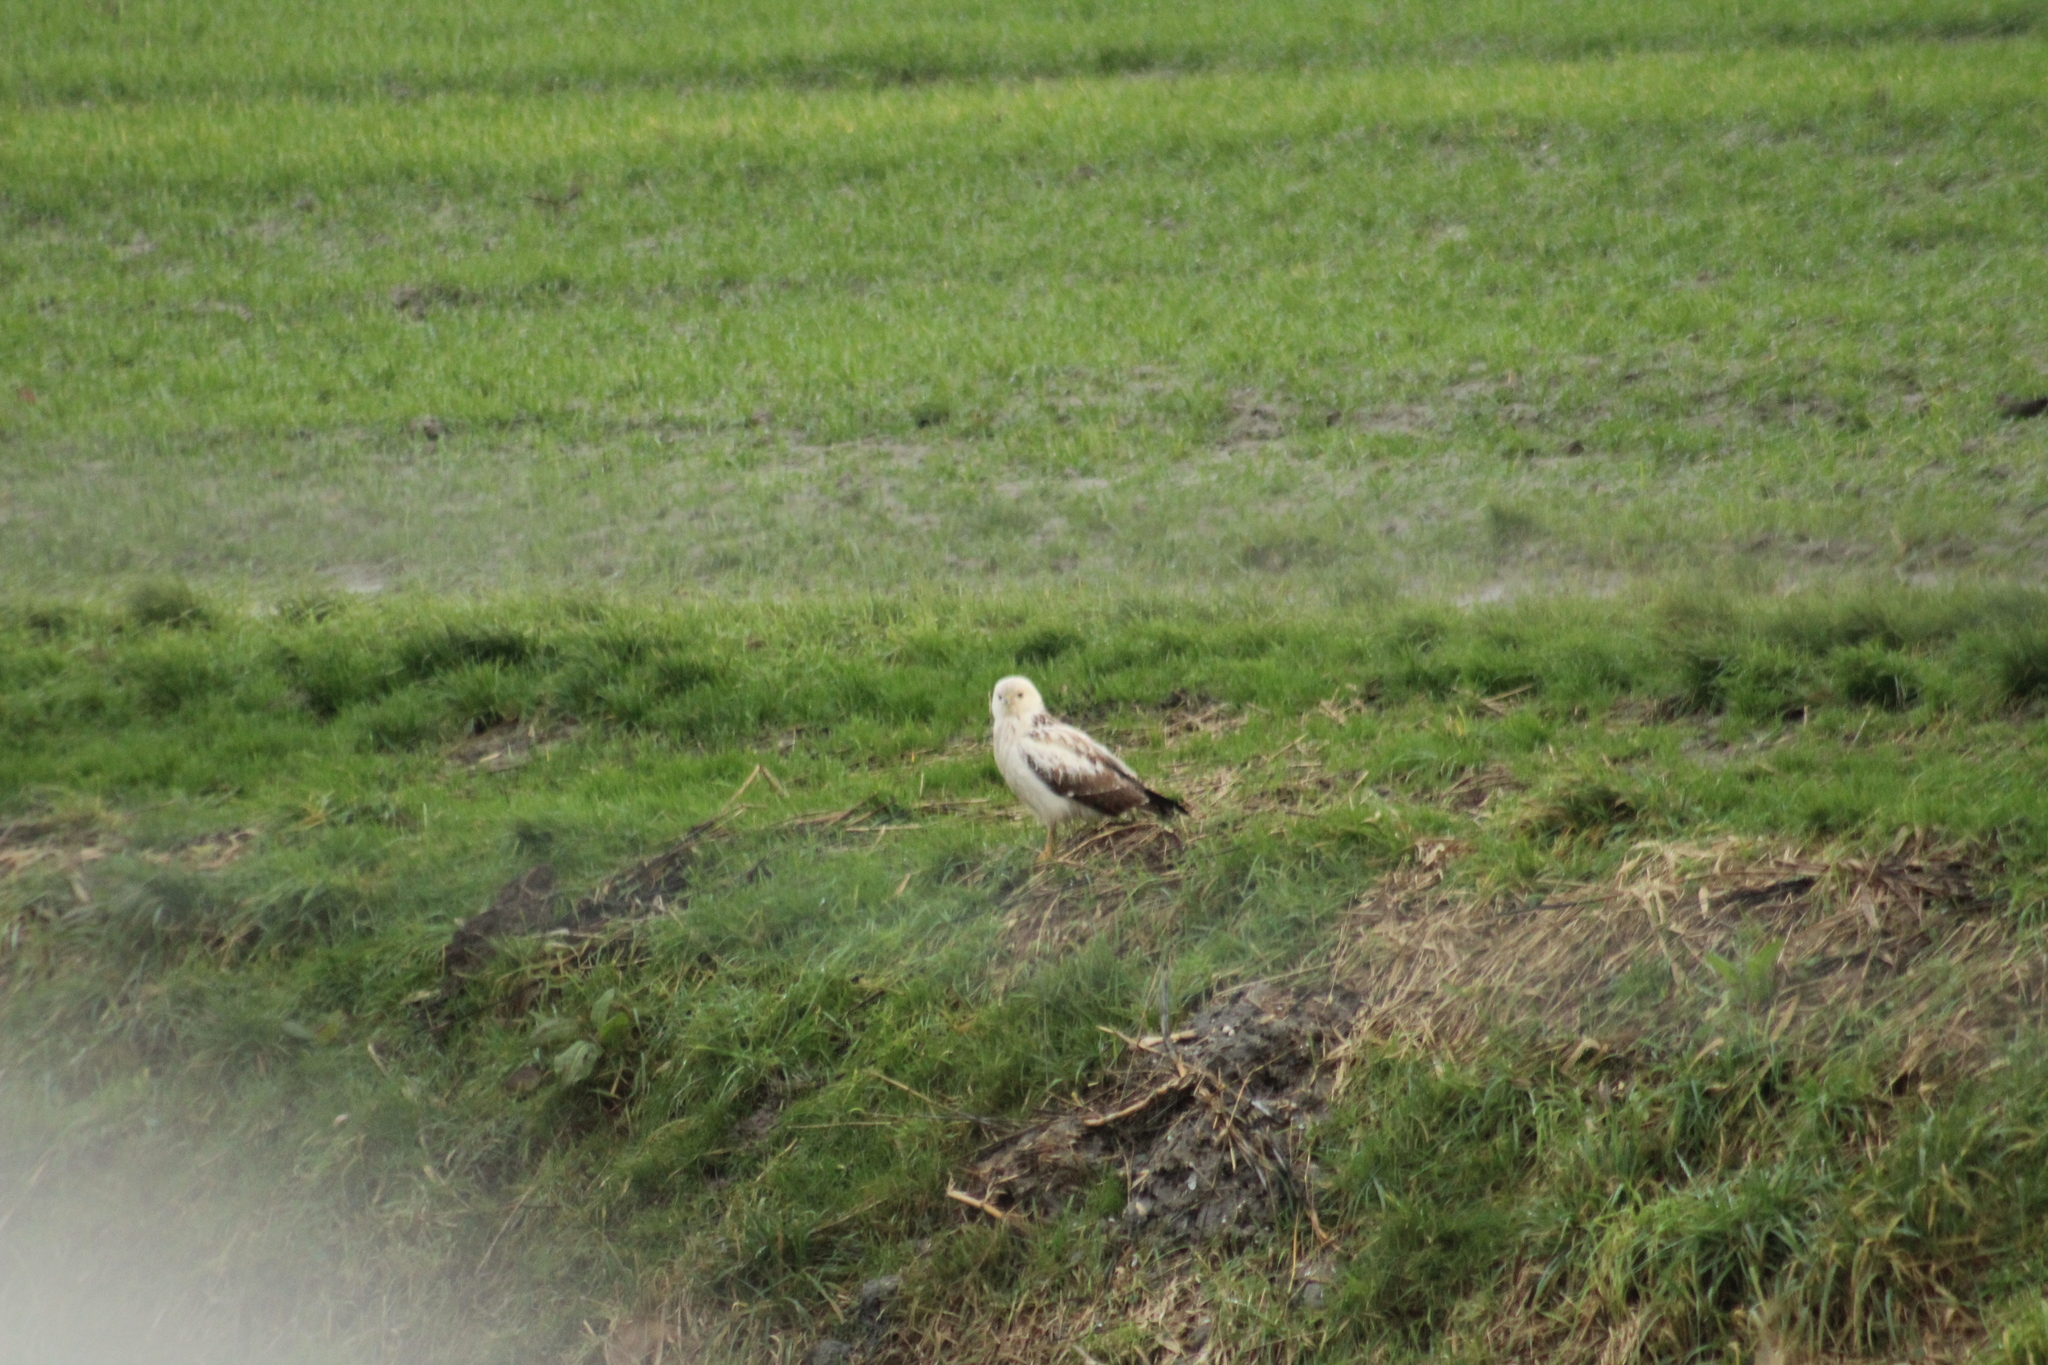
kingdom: Animalia
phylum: Chordata
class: Aves
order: Accipitriformes
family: Accipitridae
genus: Buteo
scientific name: Buteo buteo
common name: Common buzzard
